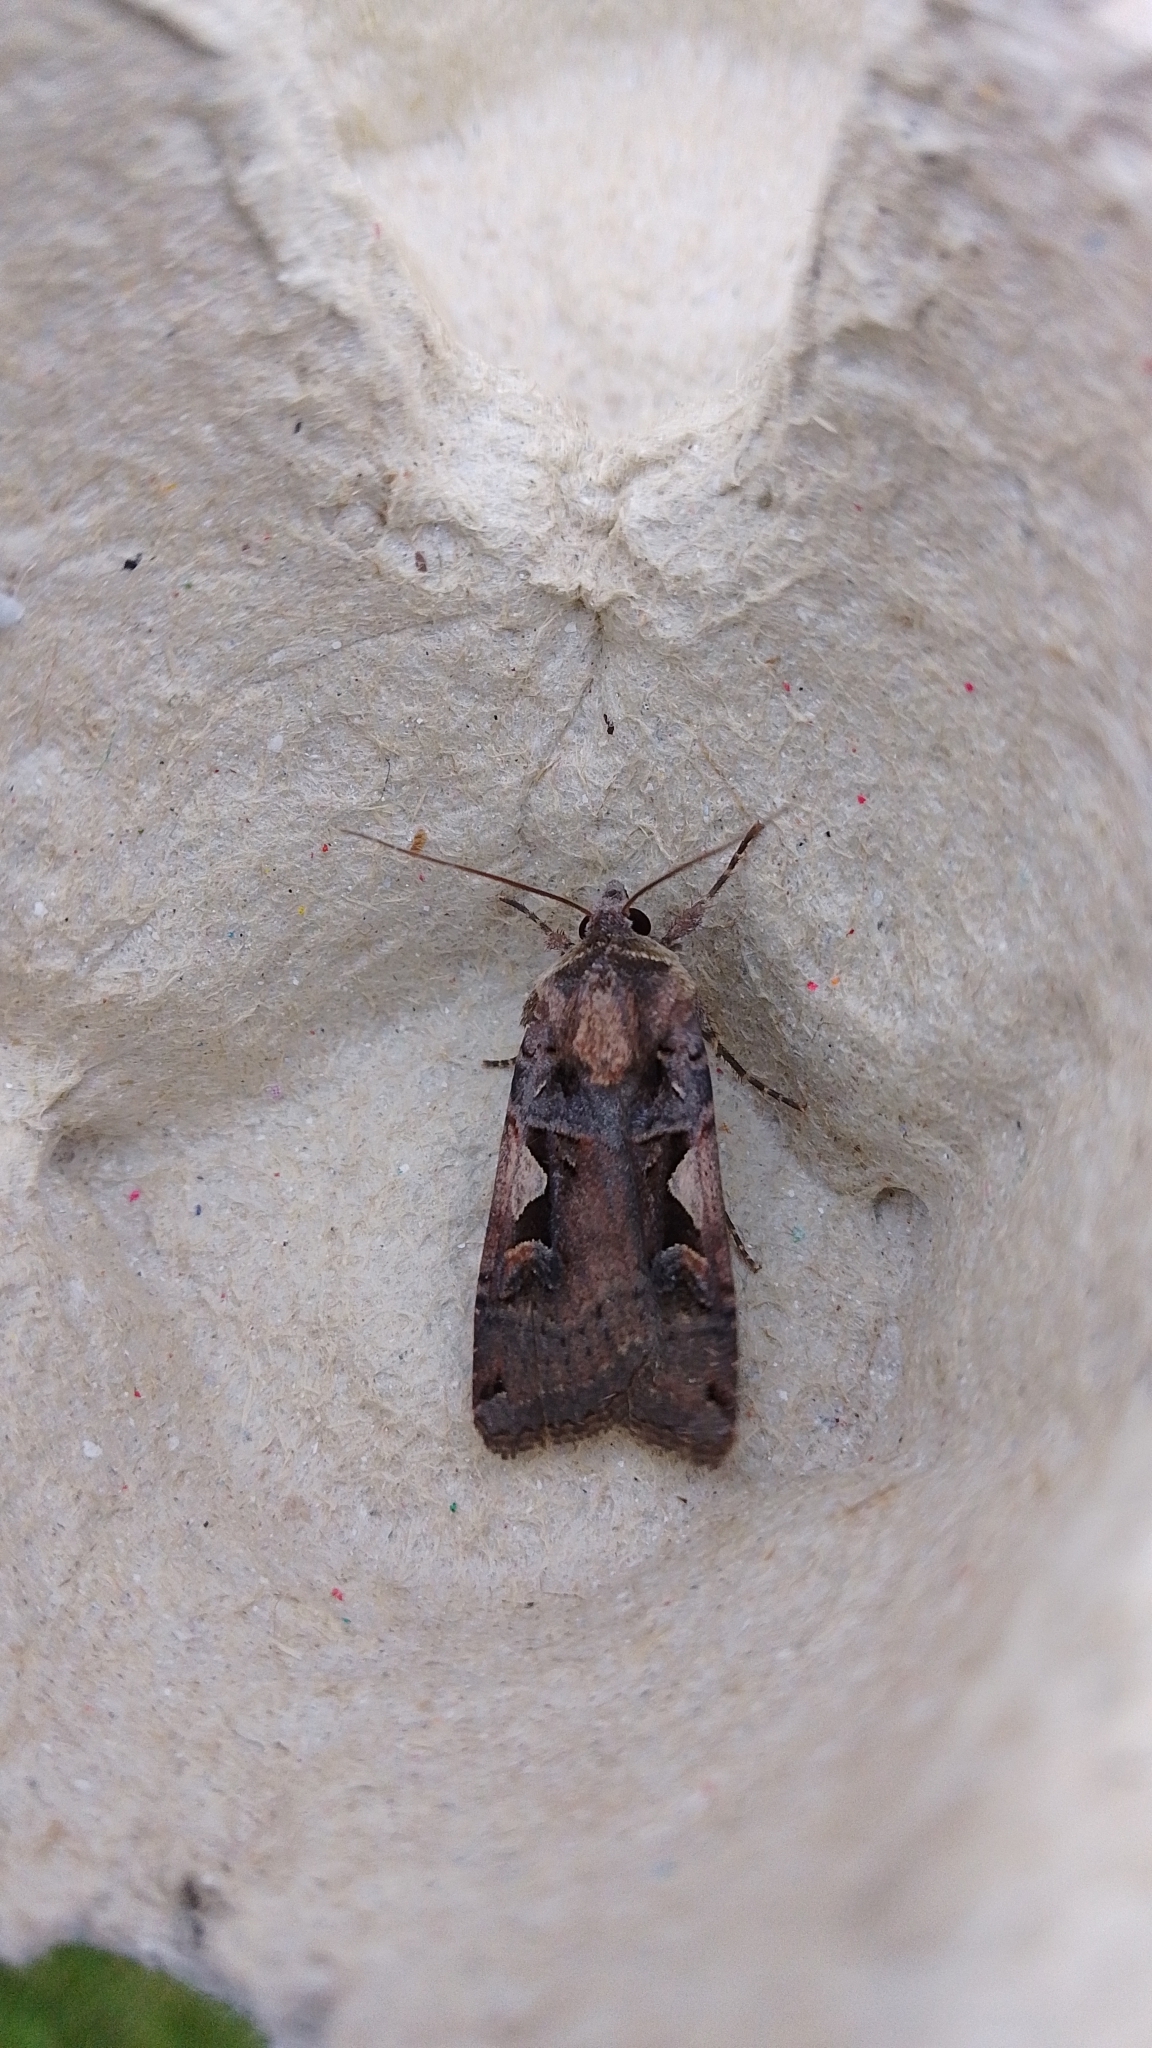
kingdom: Animalia
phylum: Arthropoda
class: Insecta
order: Lepidoptera
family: Noctuidae
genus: Xestia
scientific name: Xestia c-nigrum
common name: Setaceous hebrew character
